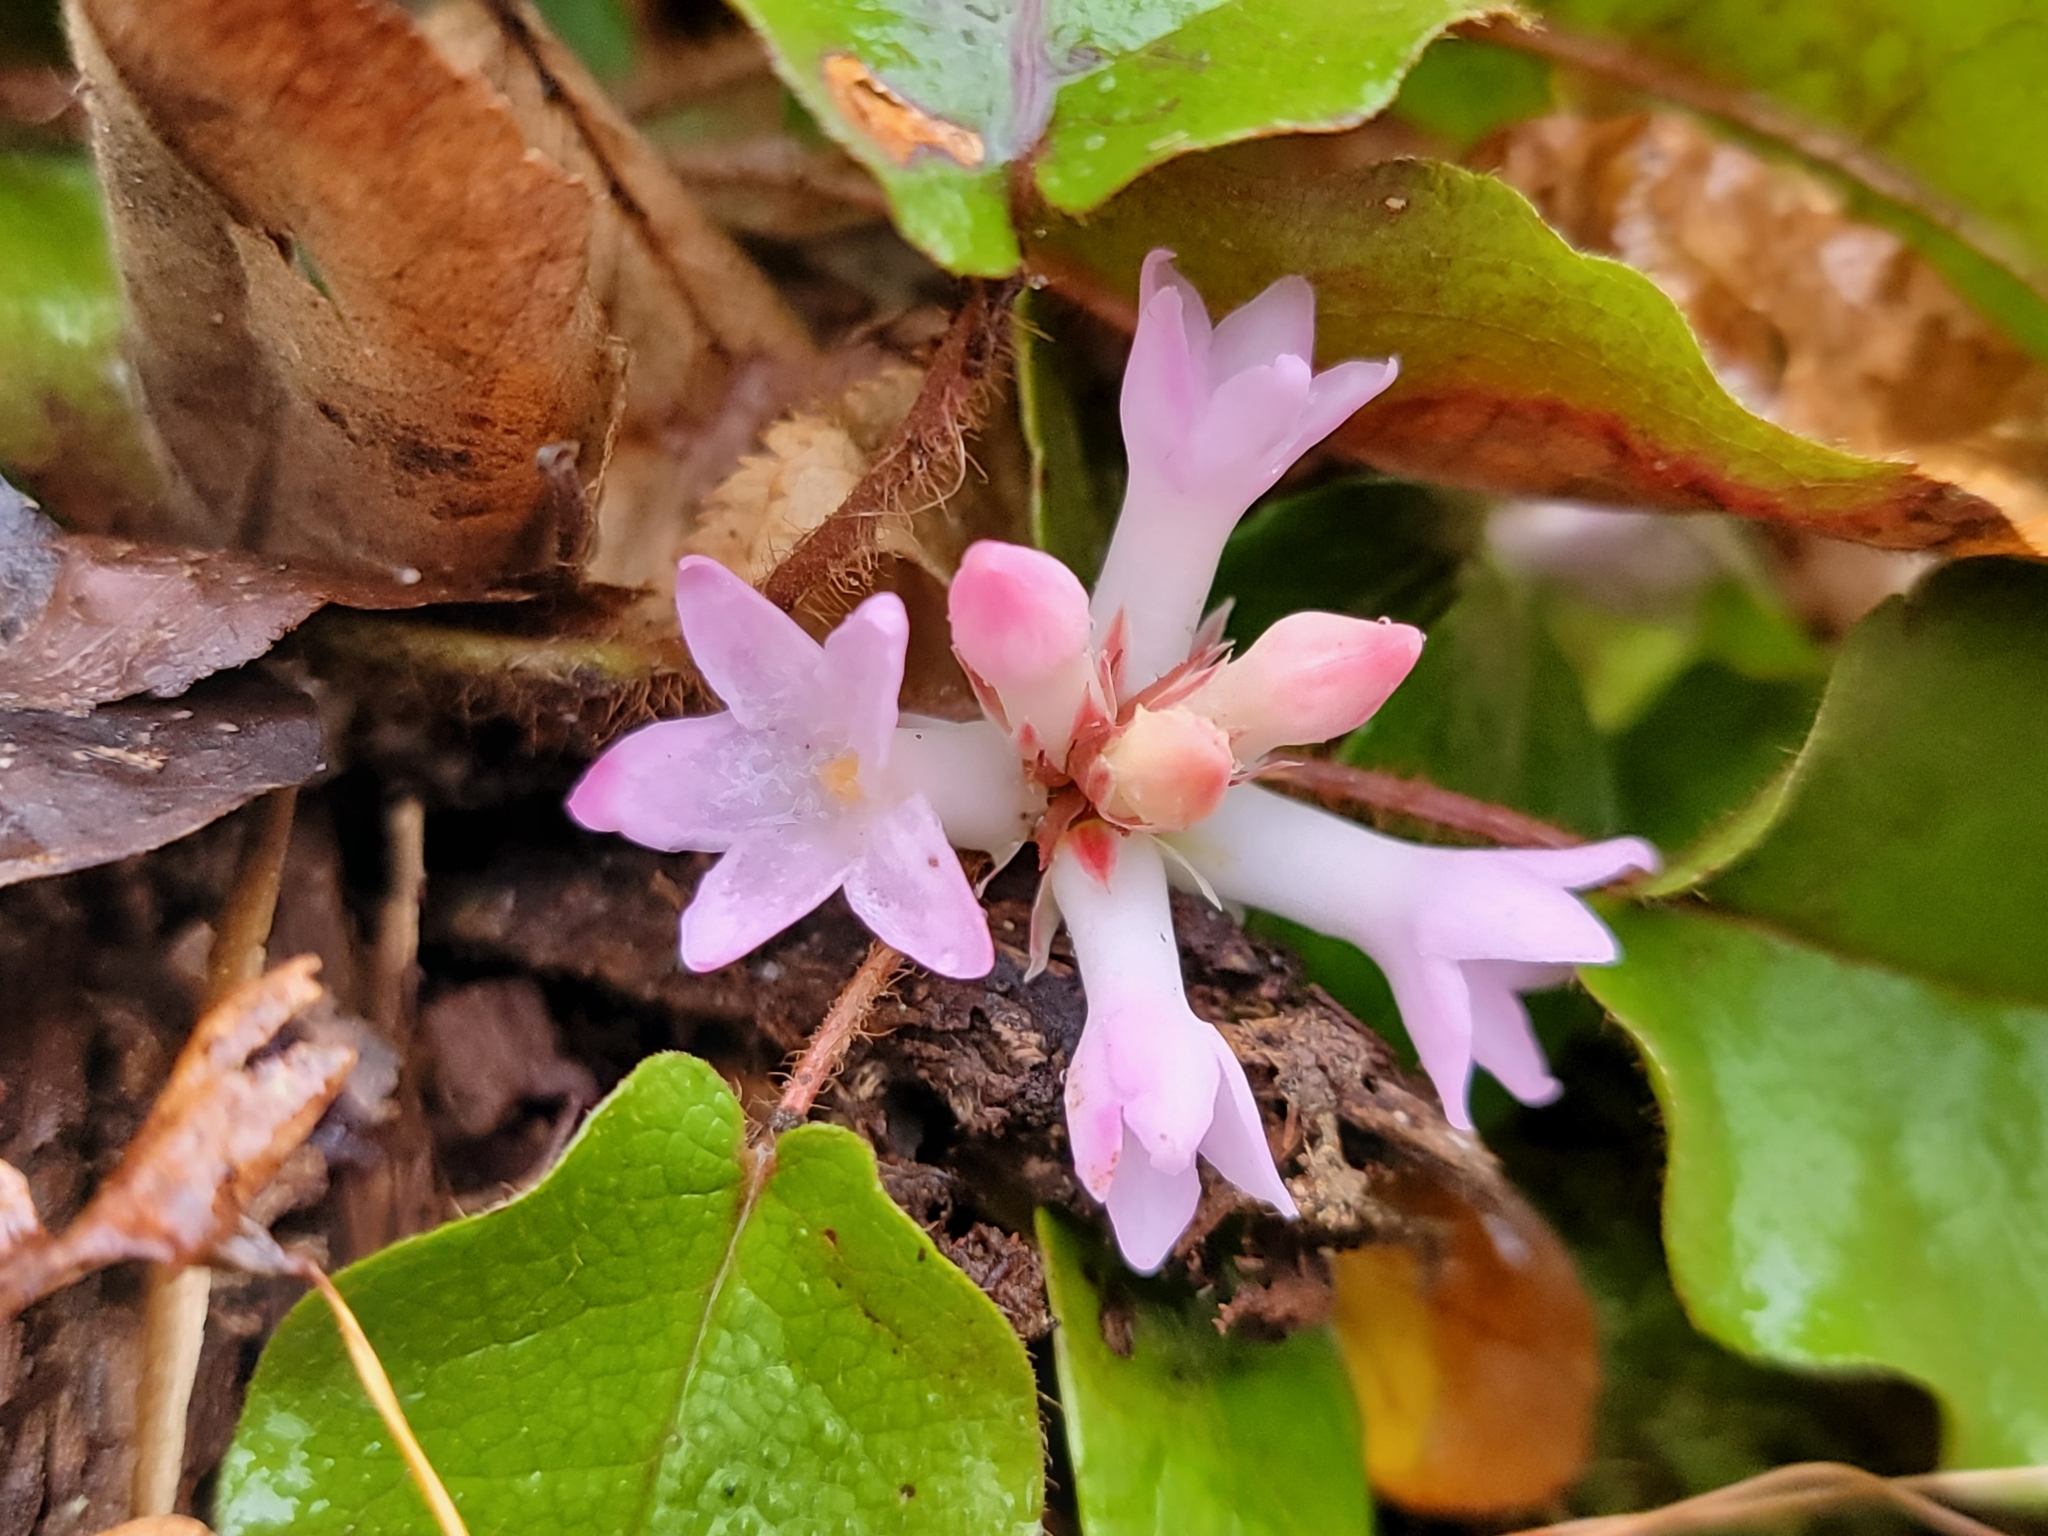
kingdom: Plantae
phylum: Tracheophyta
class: Magnoliopsida
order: Ericales
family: Ericaceae
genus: Epigaea
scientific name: Epigaea repens
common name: Gravelroot
